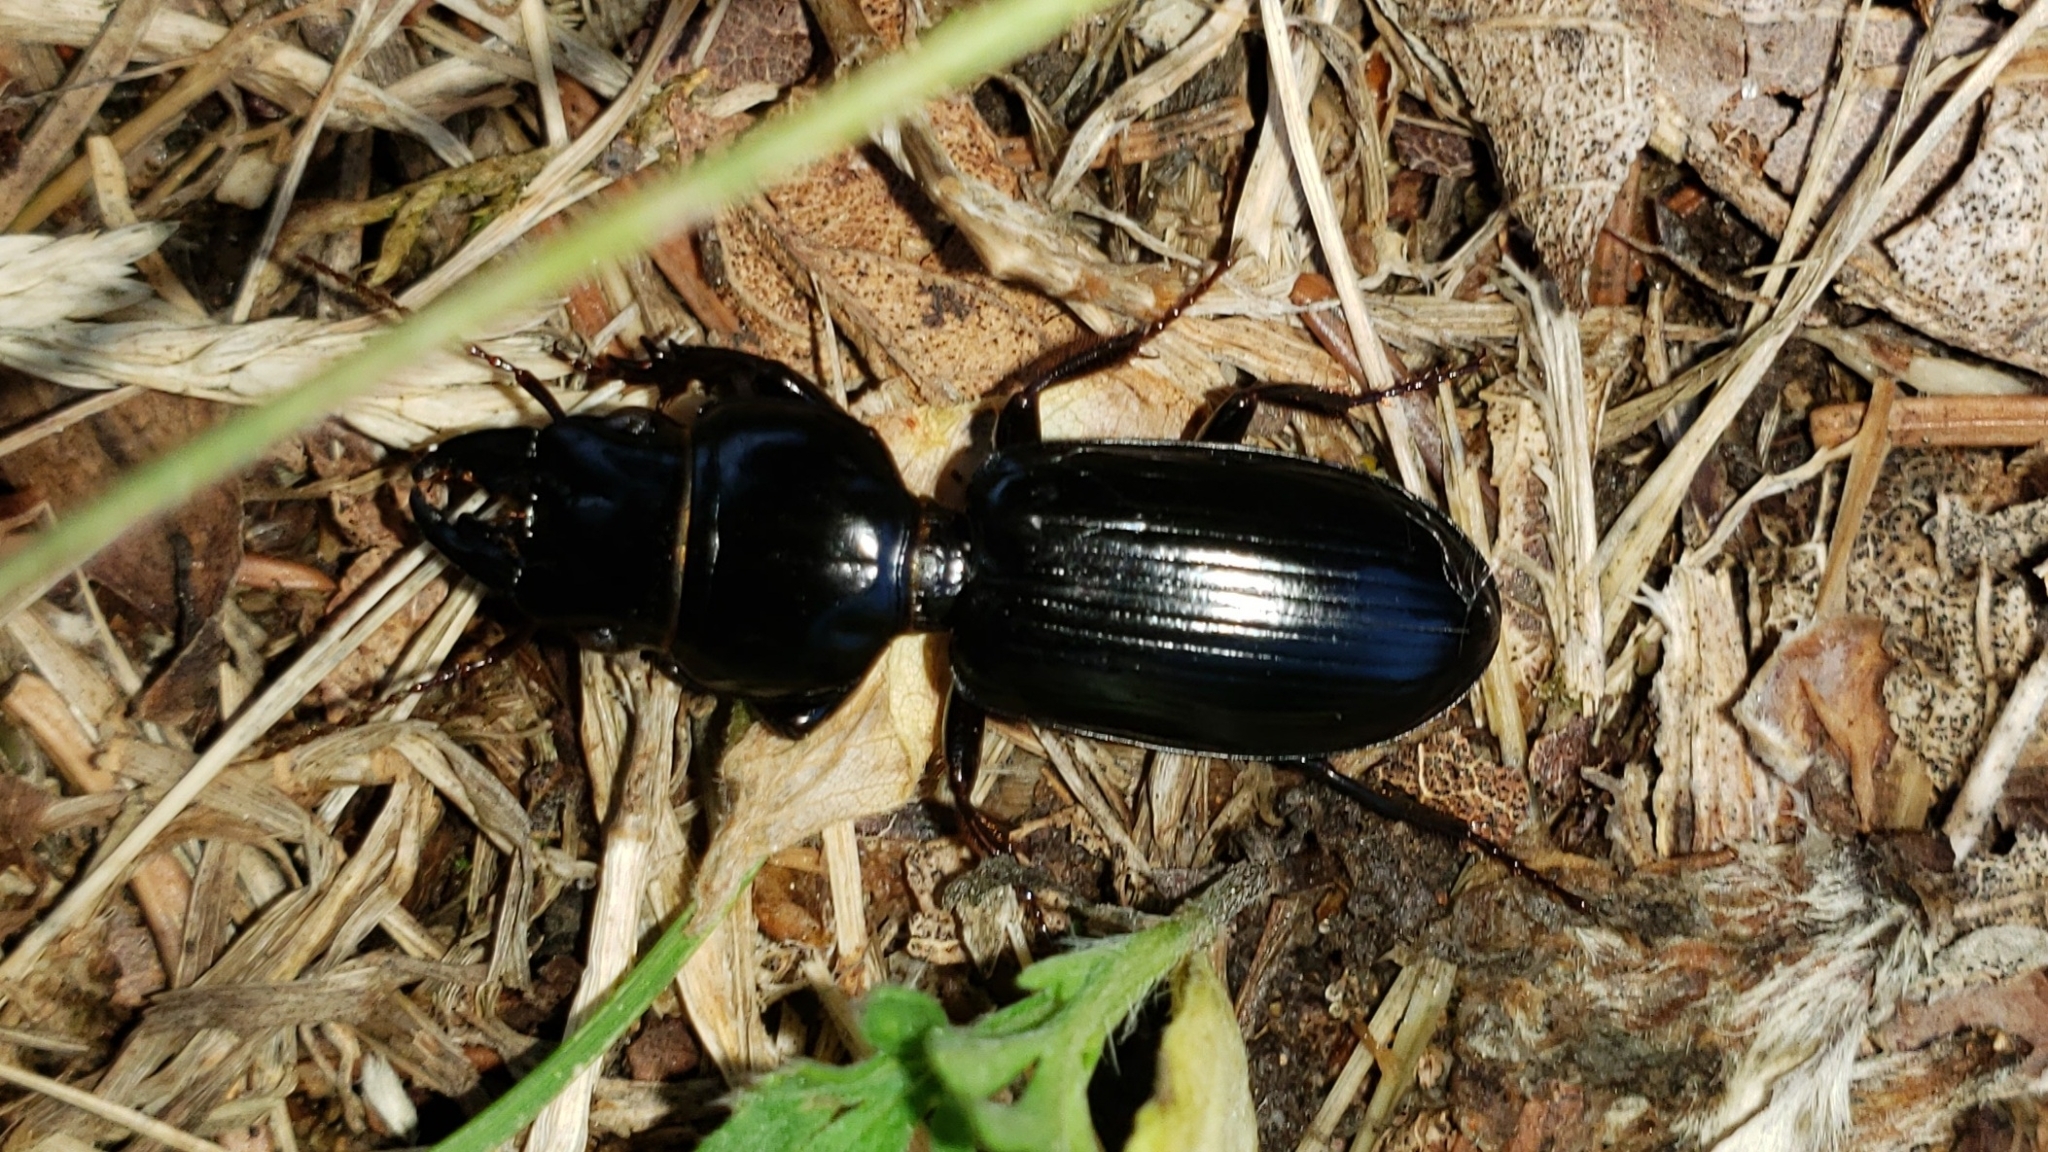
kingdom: Animalia
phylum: Arthropoda
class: Insecta
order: Coleoptera
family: Carabidae
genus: Scarites
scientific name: Scarites subterraneus
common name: Big-headed ground beetle
